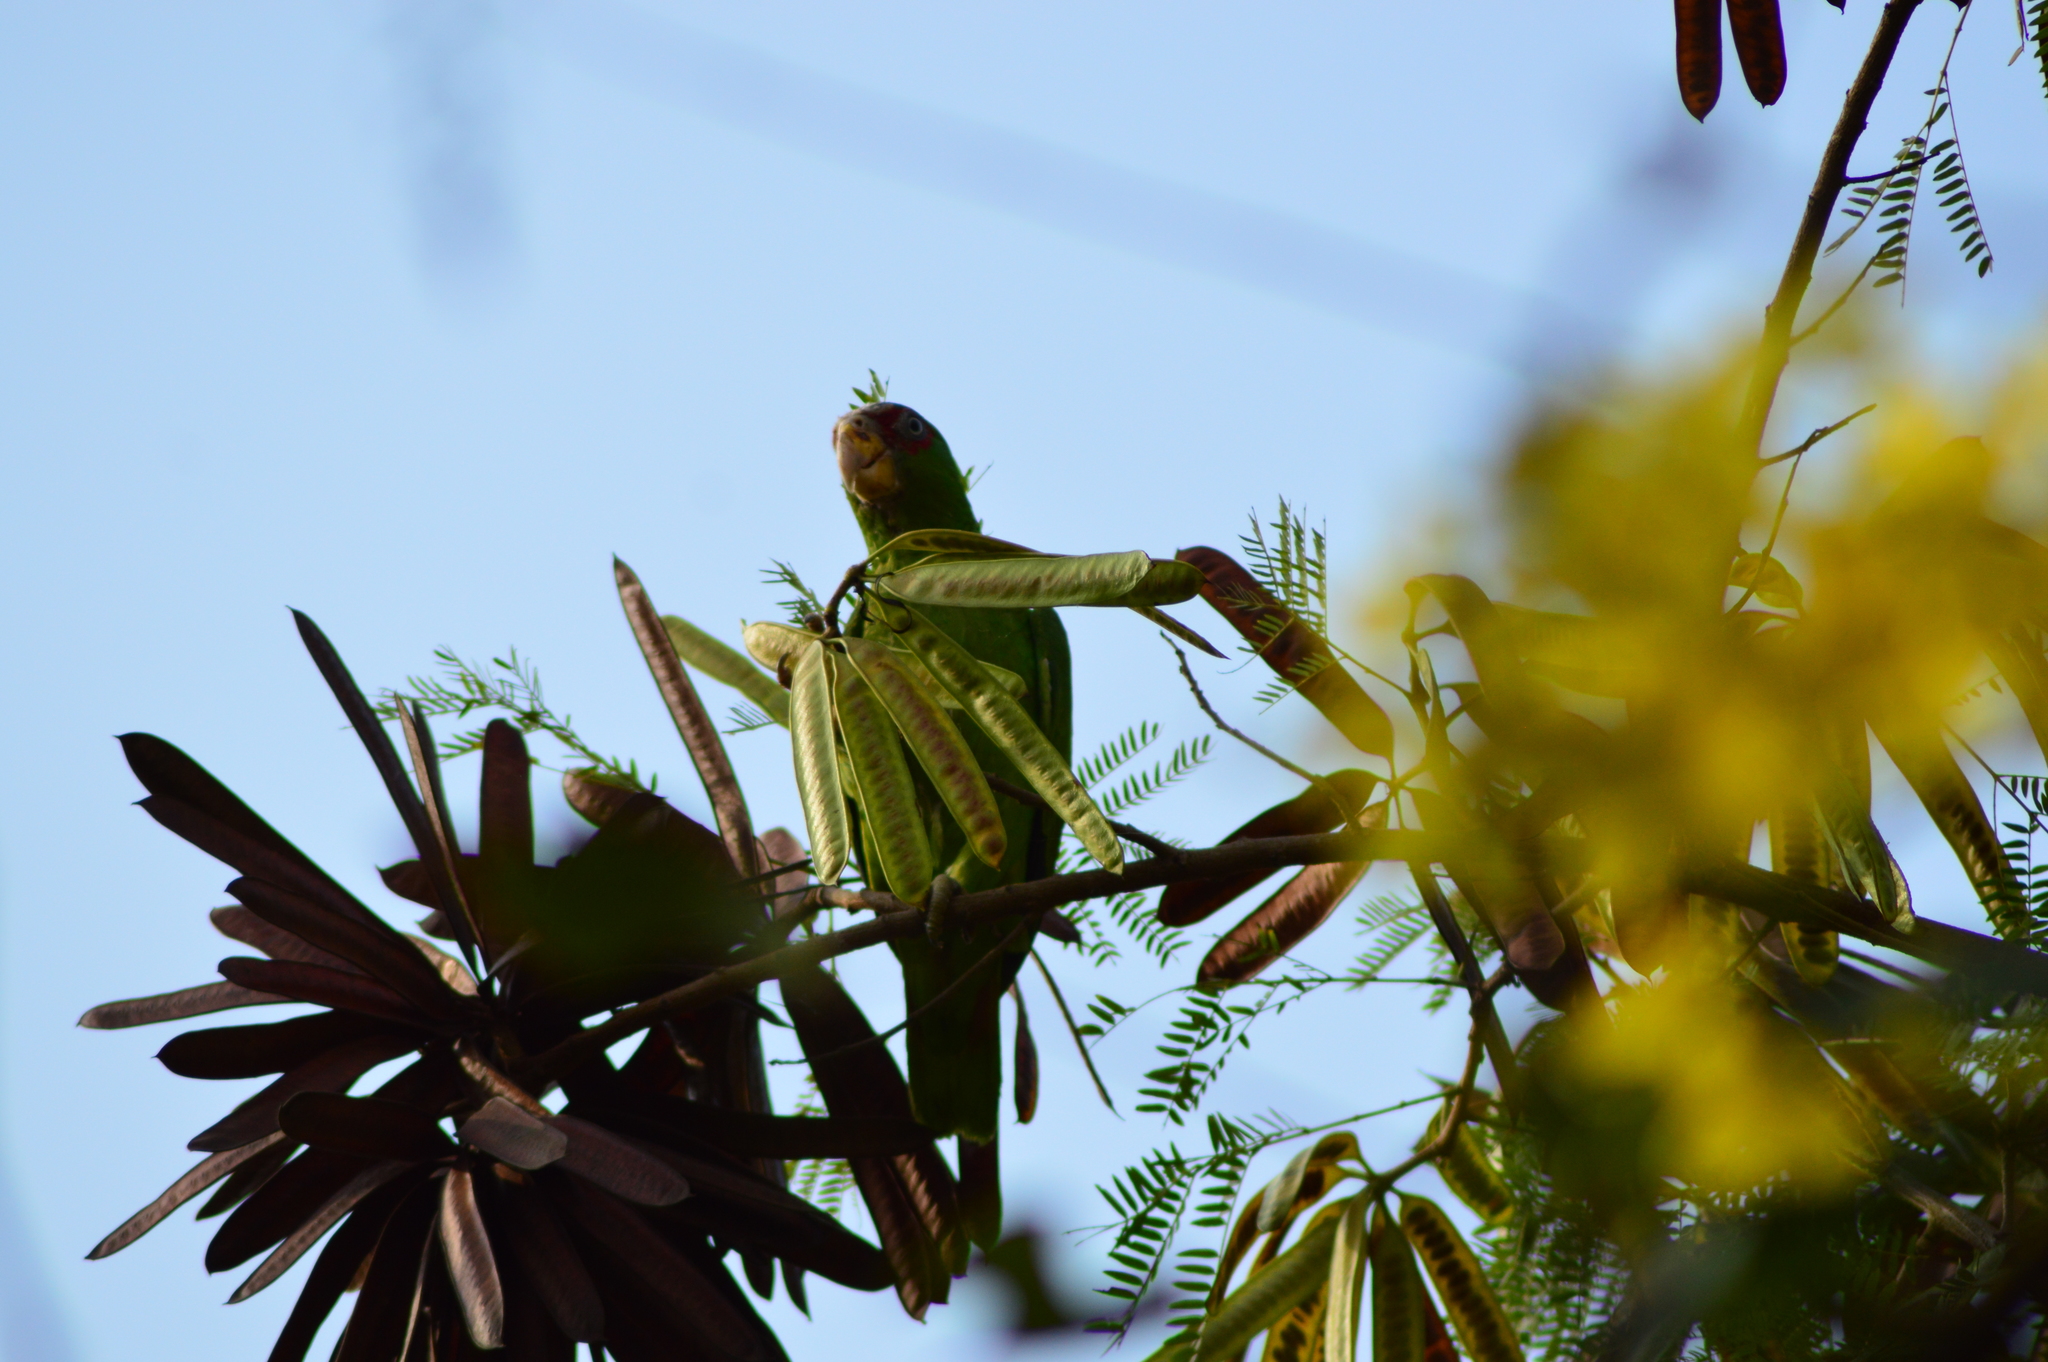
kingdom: Animalia
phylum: Chordata
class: Aves
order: Psittaciformes
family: Psittacidae
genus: Amazona
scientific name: Amazona albifrons
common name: White-fronted amazon
